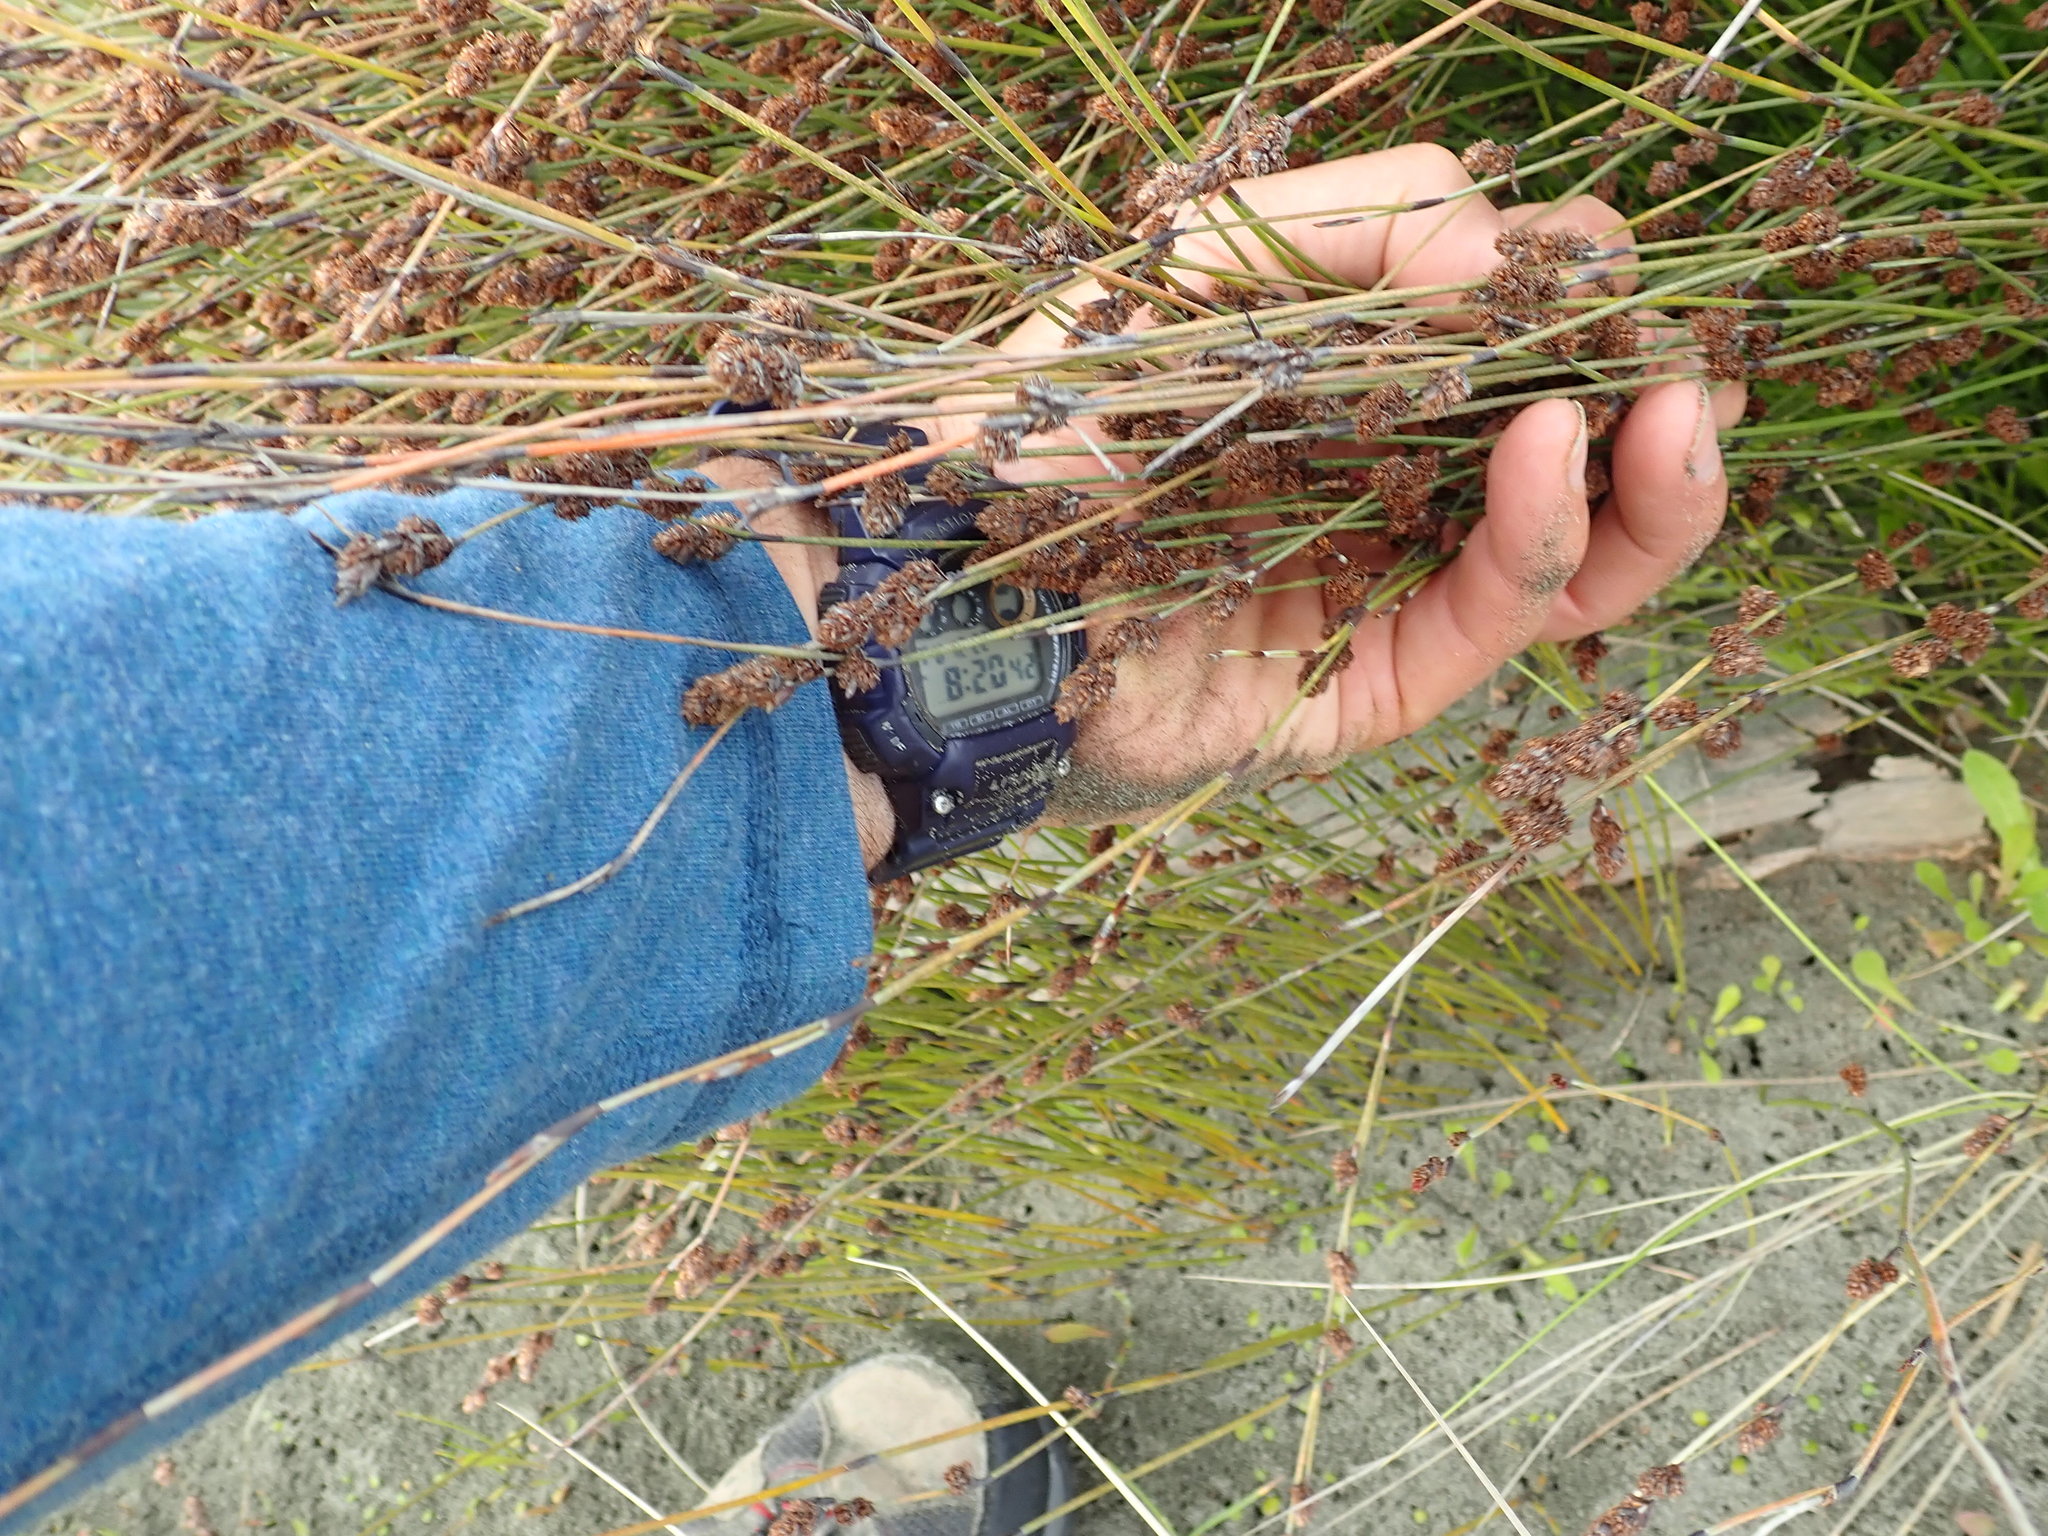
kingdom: Plantae
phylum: Tracheophyta
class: Liliopsida
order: Poales
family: Restionaceae
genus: Apodasmia
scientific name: Apodasmia similis
